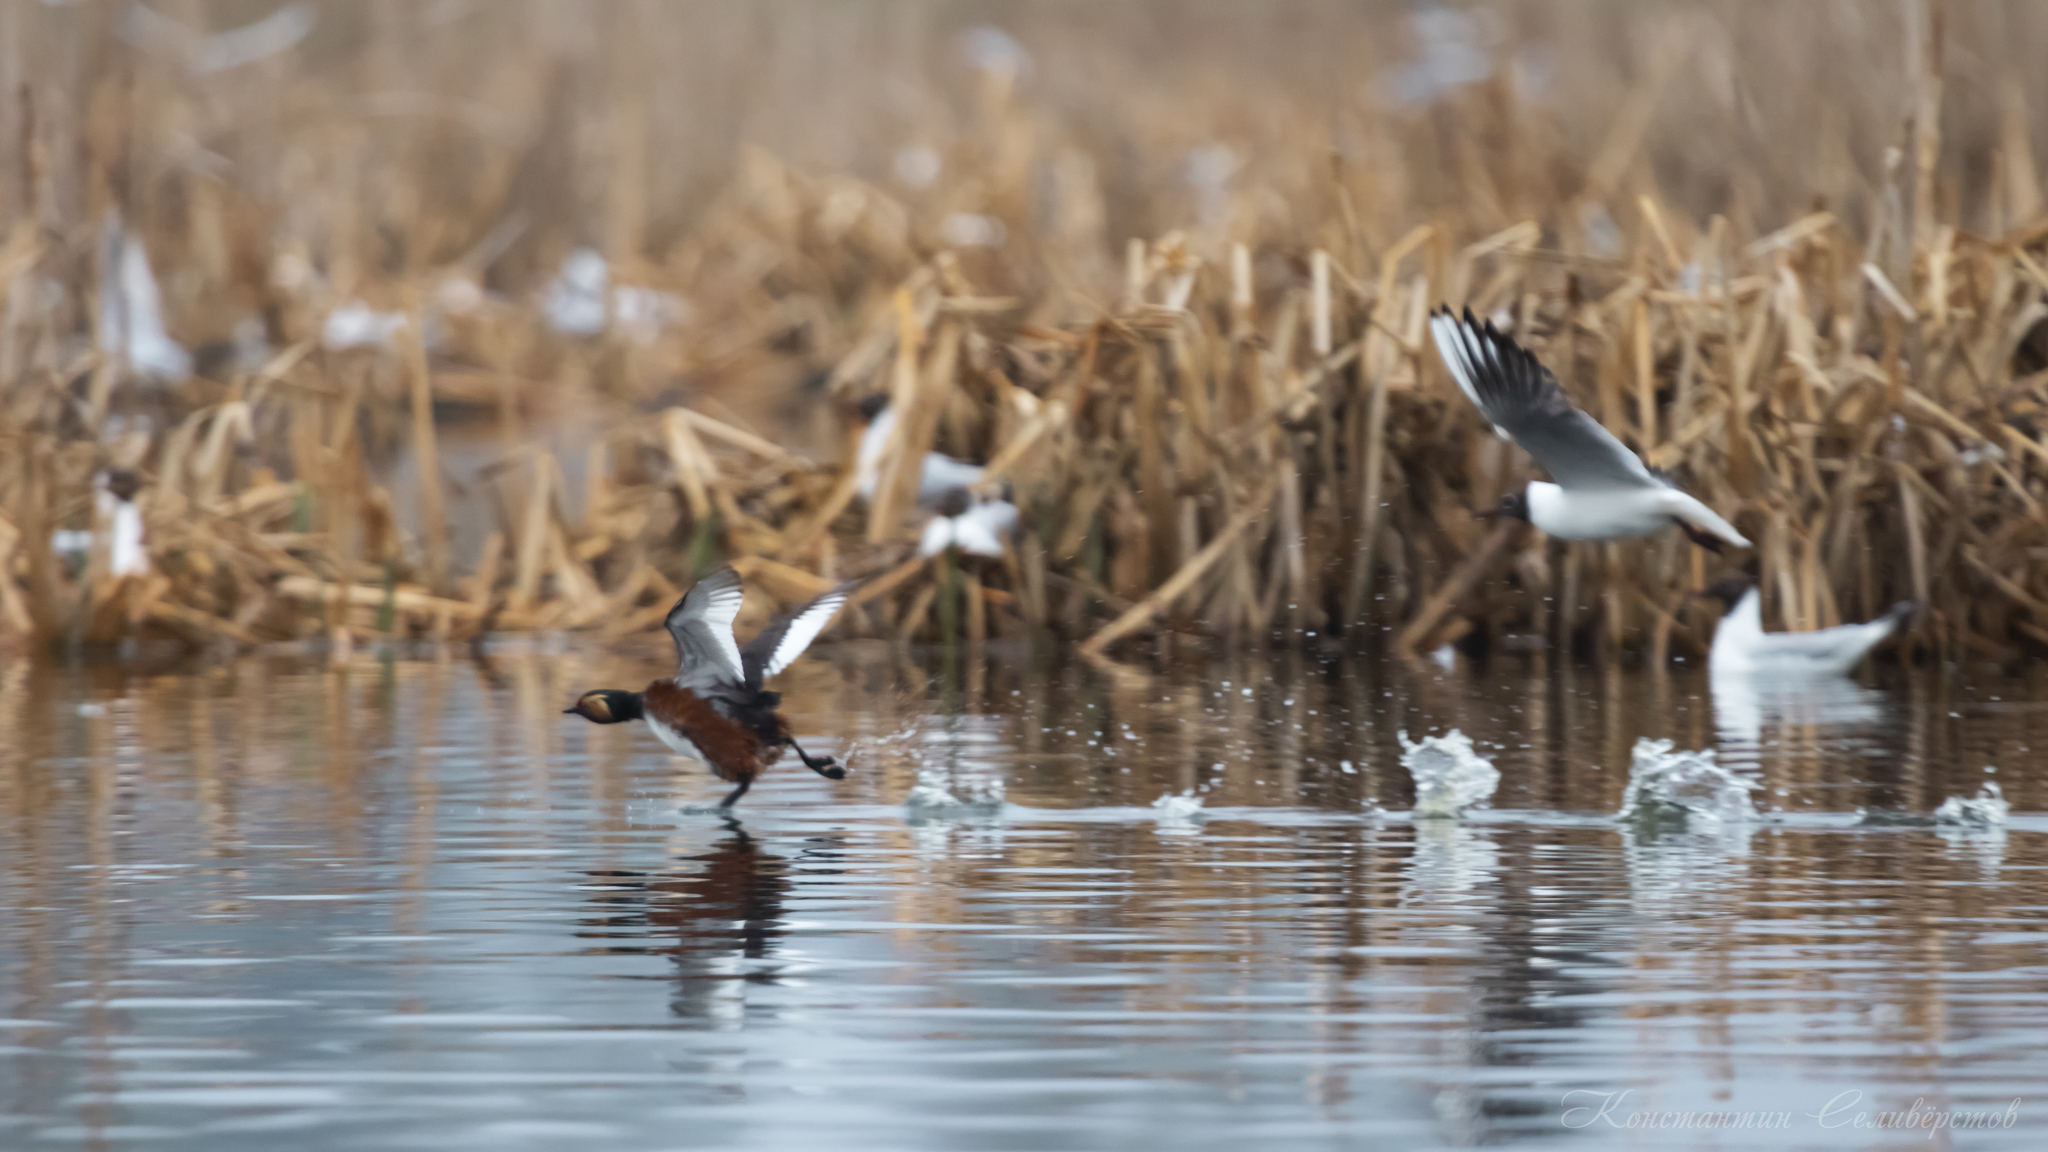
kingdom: Animalia
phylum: Chordata
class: Aves
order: Podicipediformes
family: Podicipedidae
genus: Podiceps
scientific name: Podiceps nigricollis
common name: Black-necked grebe
